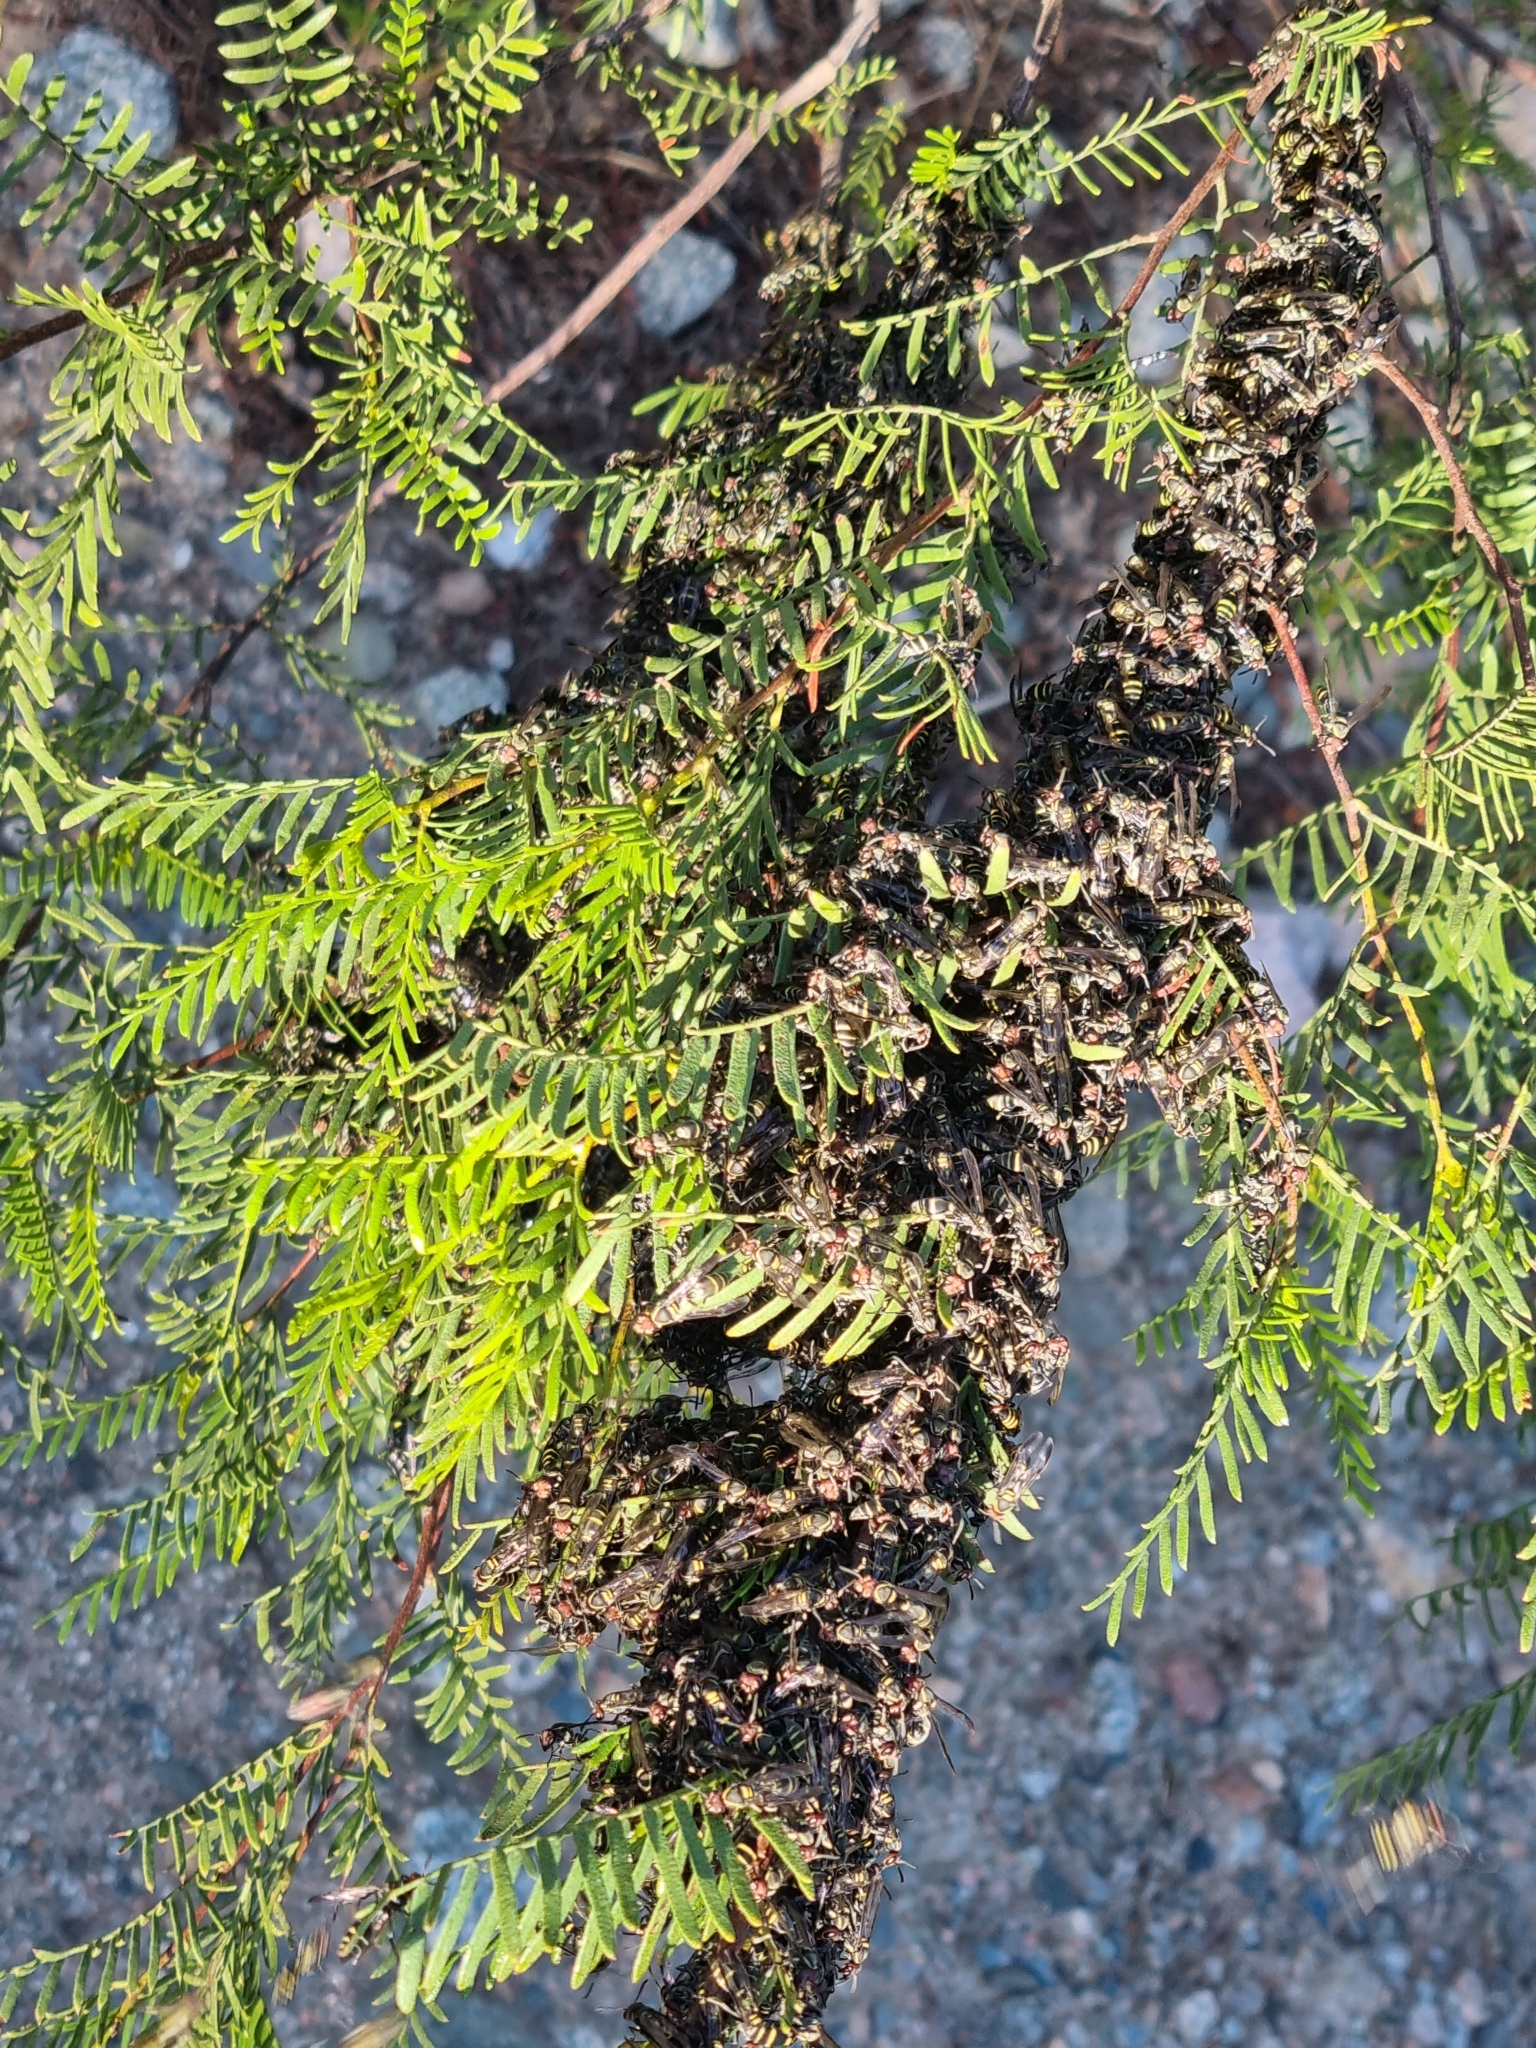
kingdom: Animalia
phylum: Arthropoda
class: Insecta
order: Hymenoptera
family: Eumenidae
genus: Polybia
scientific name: Polybia ruficeps
